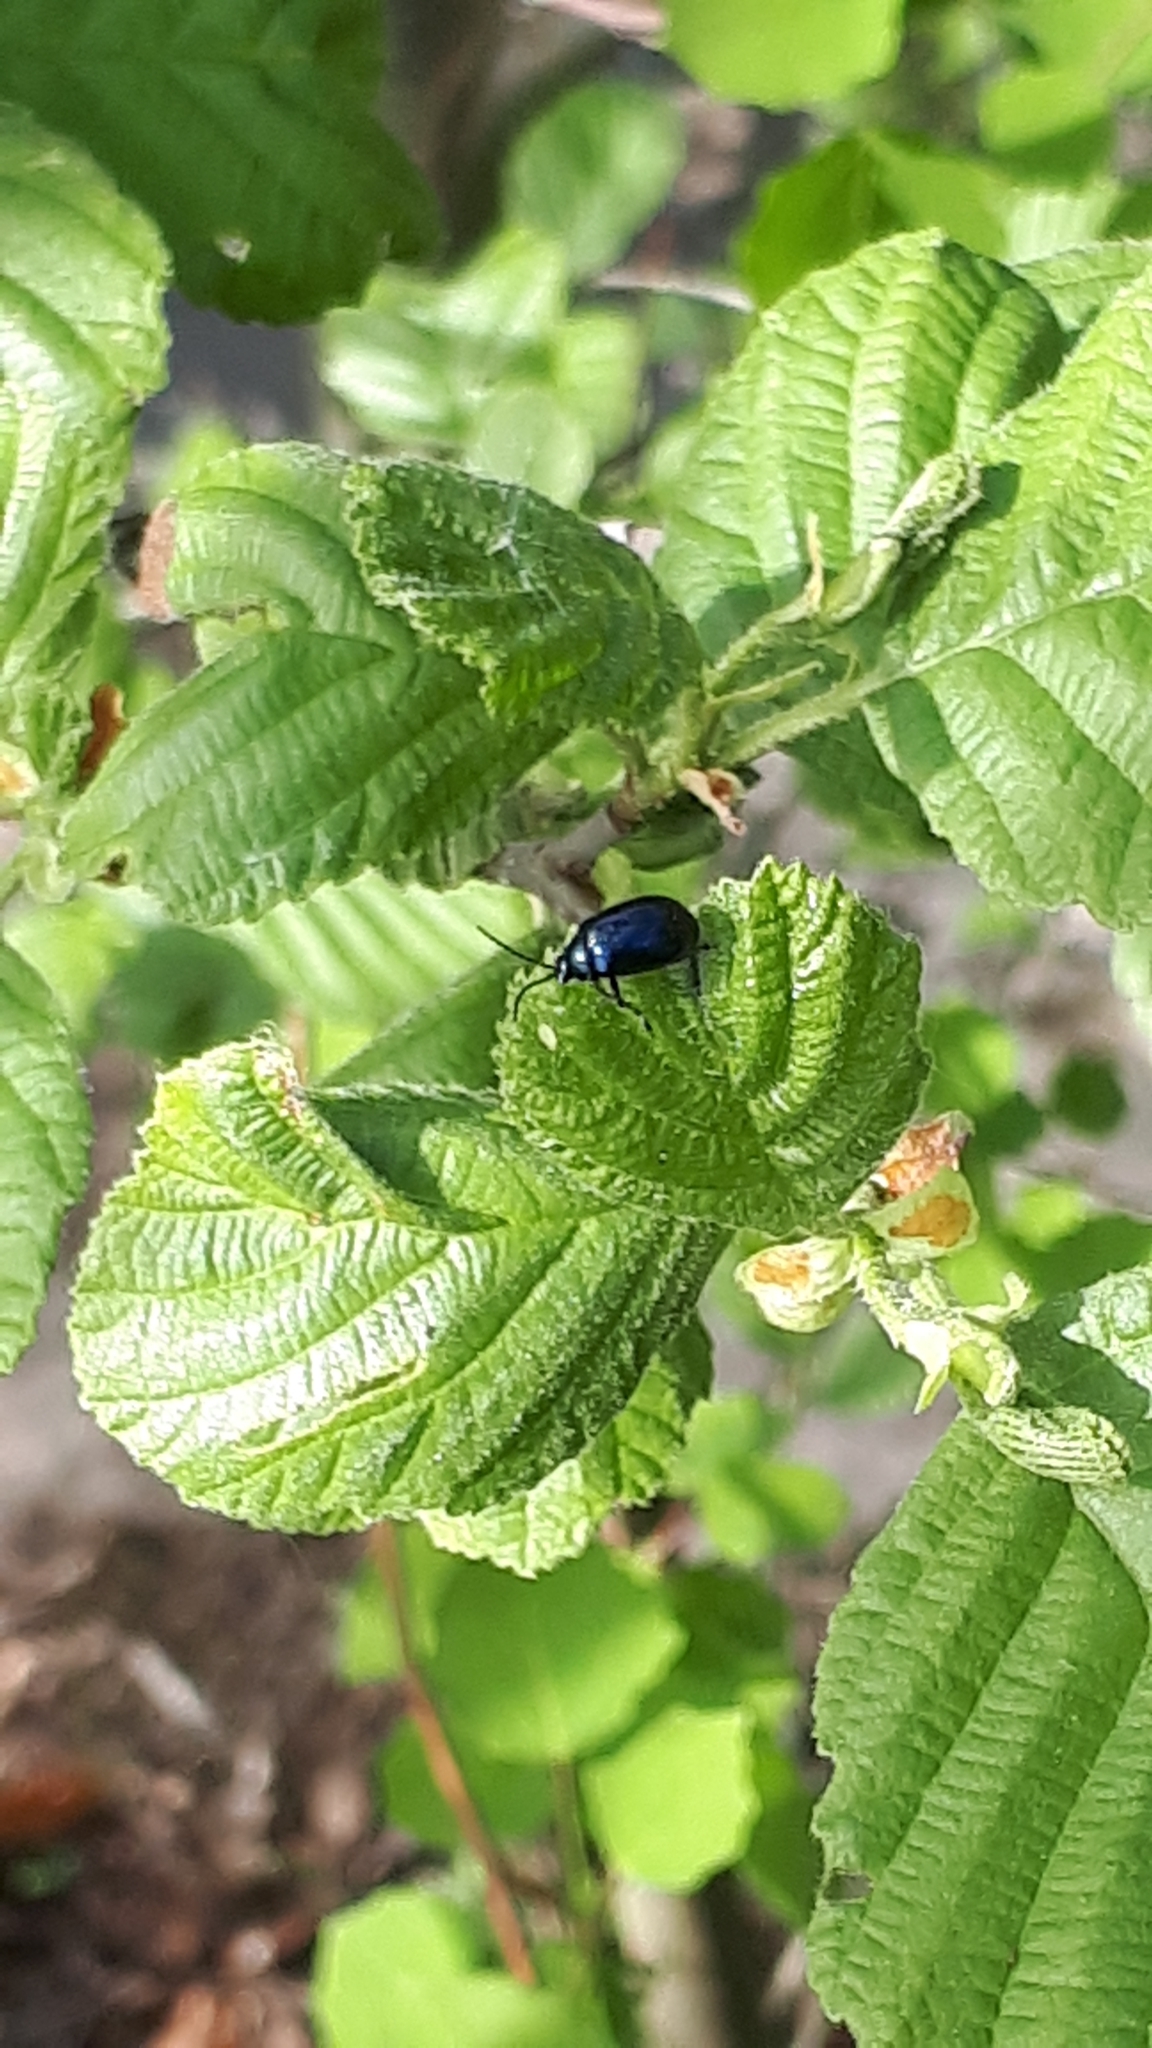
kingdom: Animalia
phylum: Arthropoda
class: Insecta
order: Coleoptera
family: Chrysomelidae
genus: Agelastica
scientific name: Agelastica alni
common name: Alder leaf beetle
